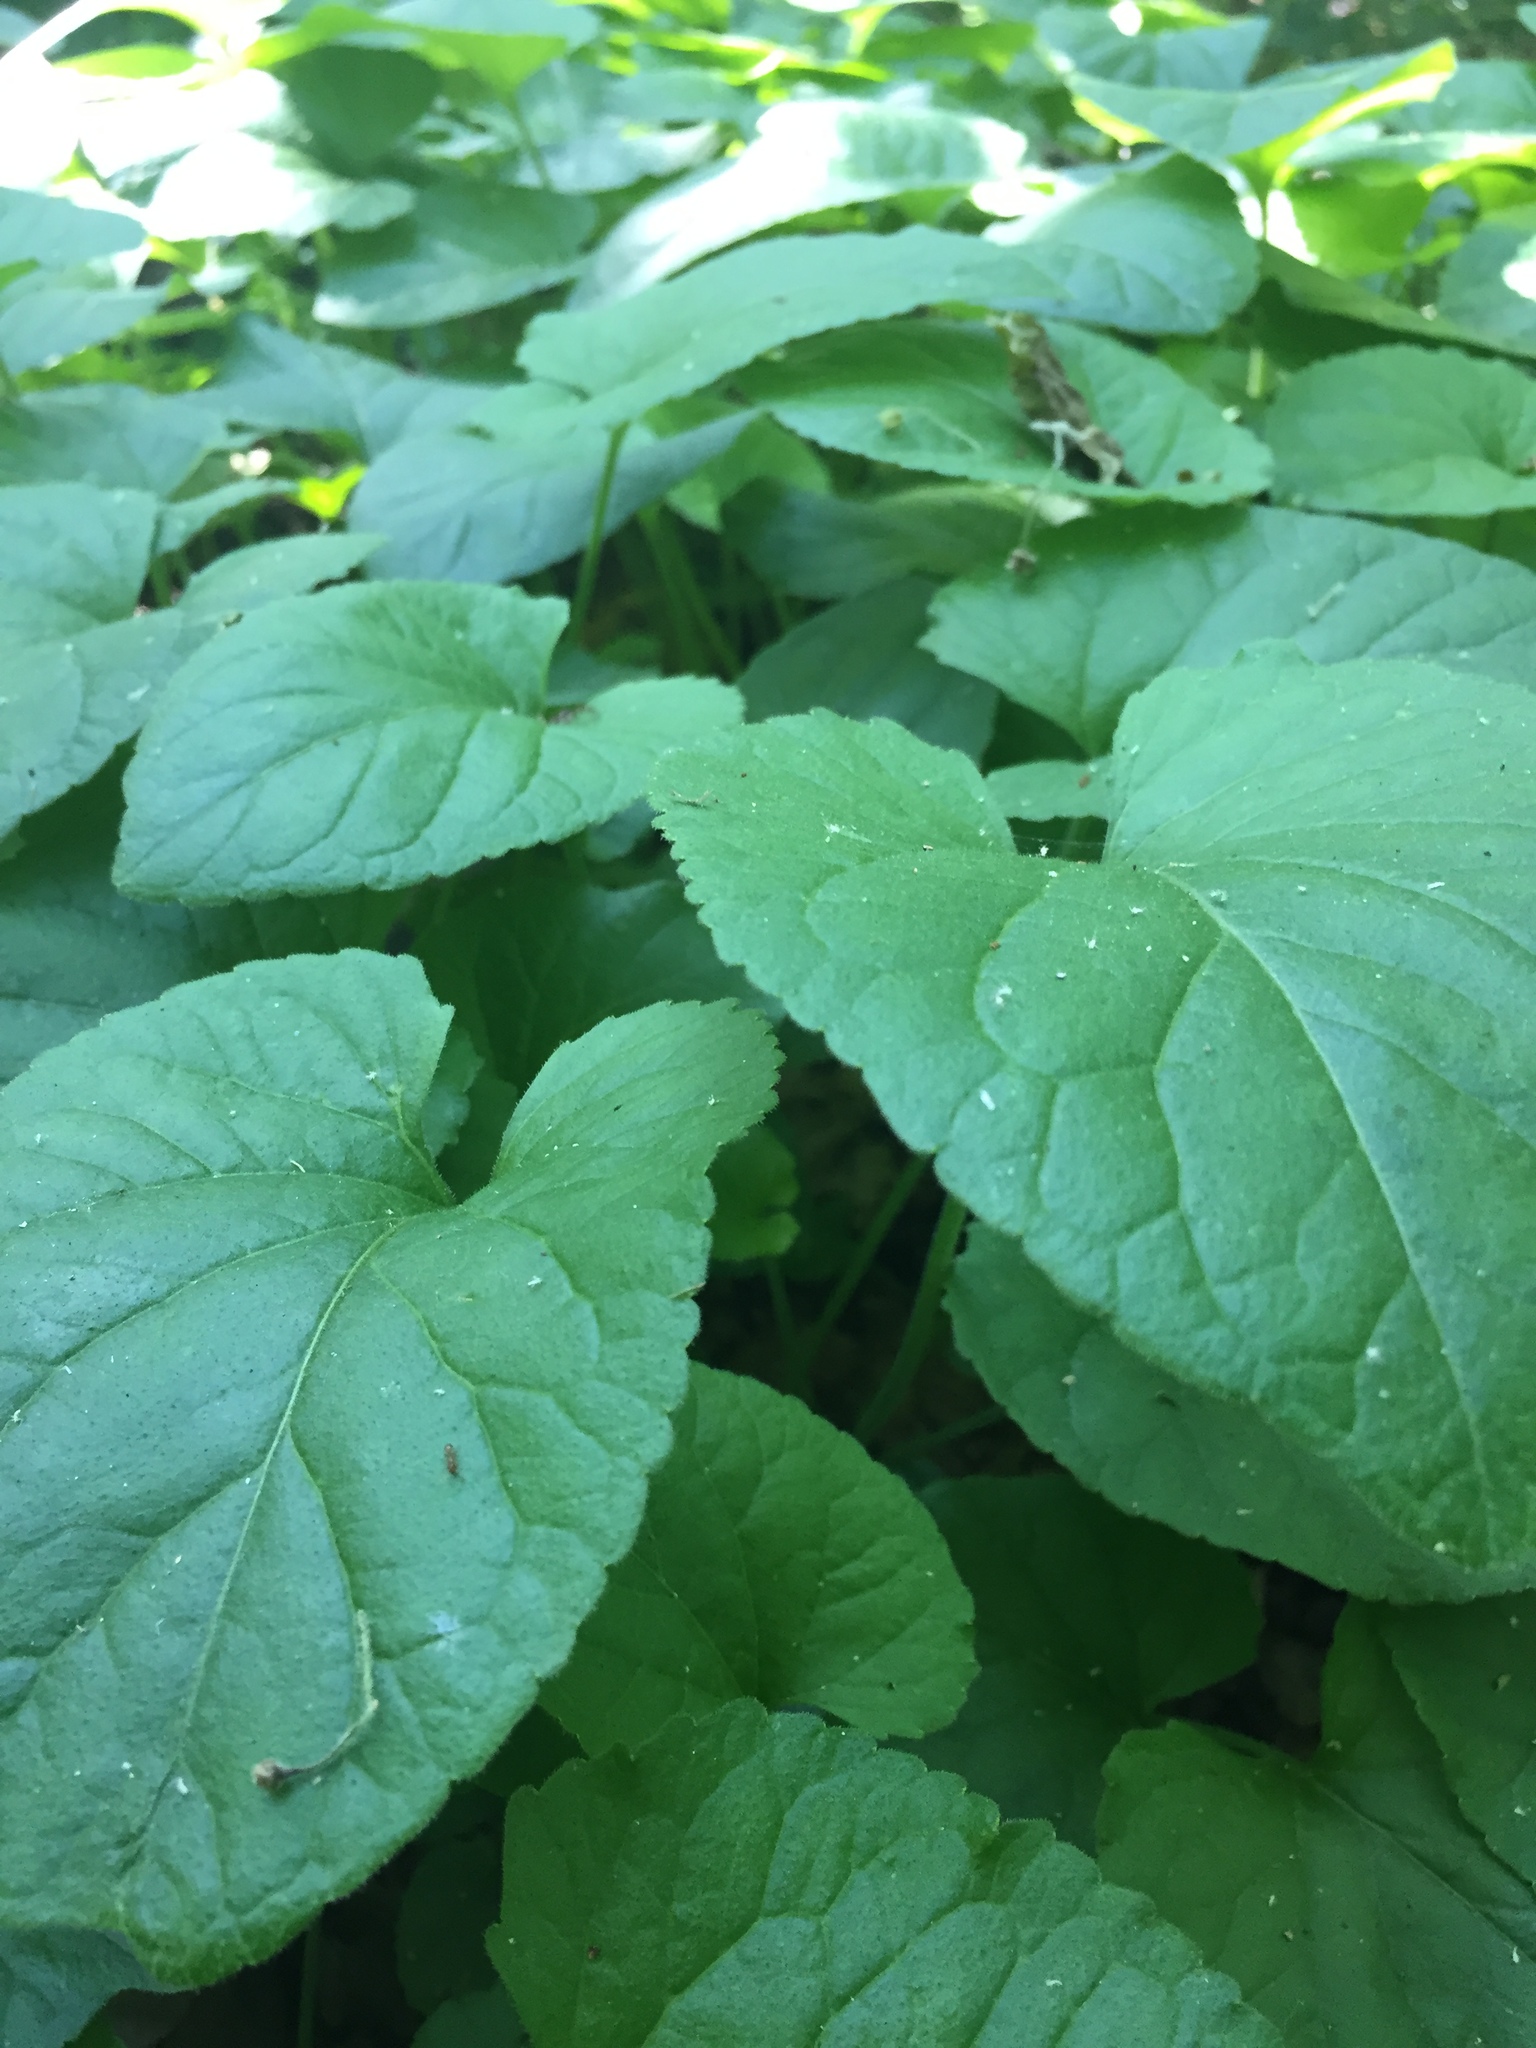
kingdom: Plantae
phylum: Tracheophyta
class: Magnoliopsida
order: Malpighiales
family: Violaceae
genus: Viola
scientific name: Viola odorata
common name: Sweet violet
